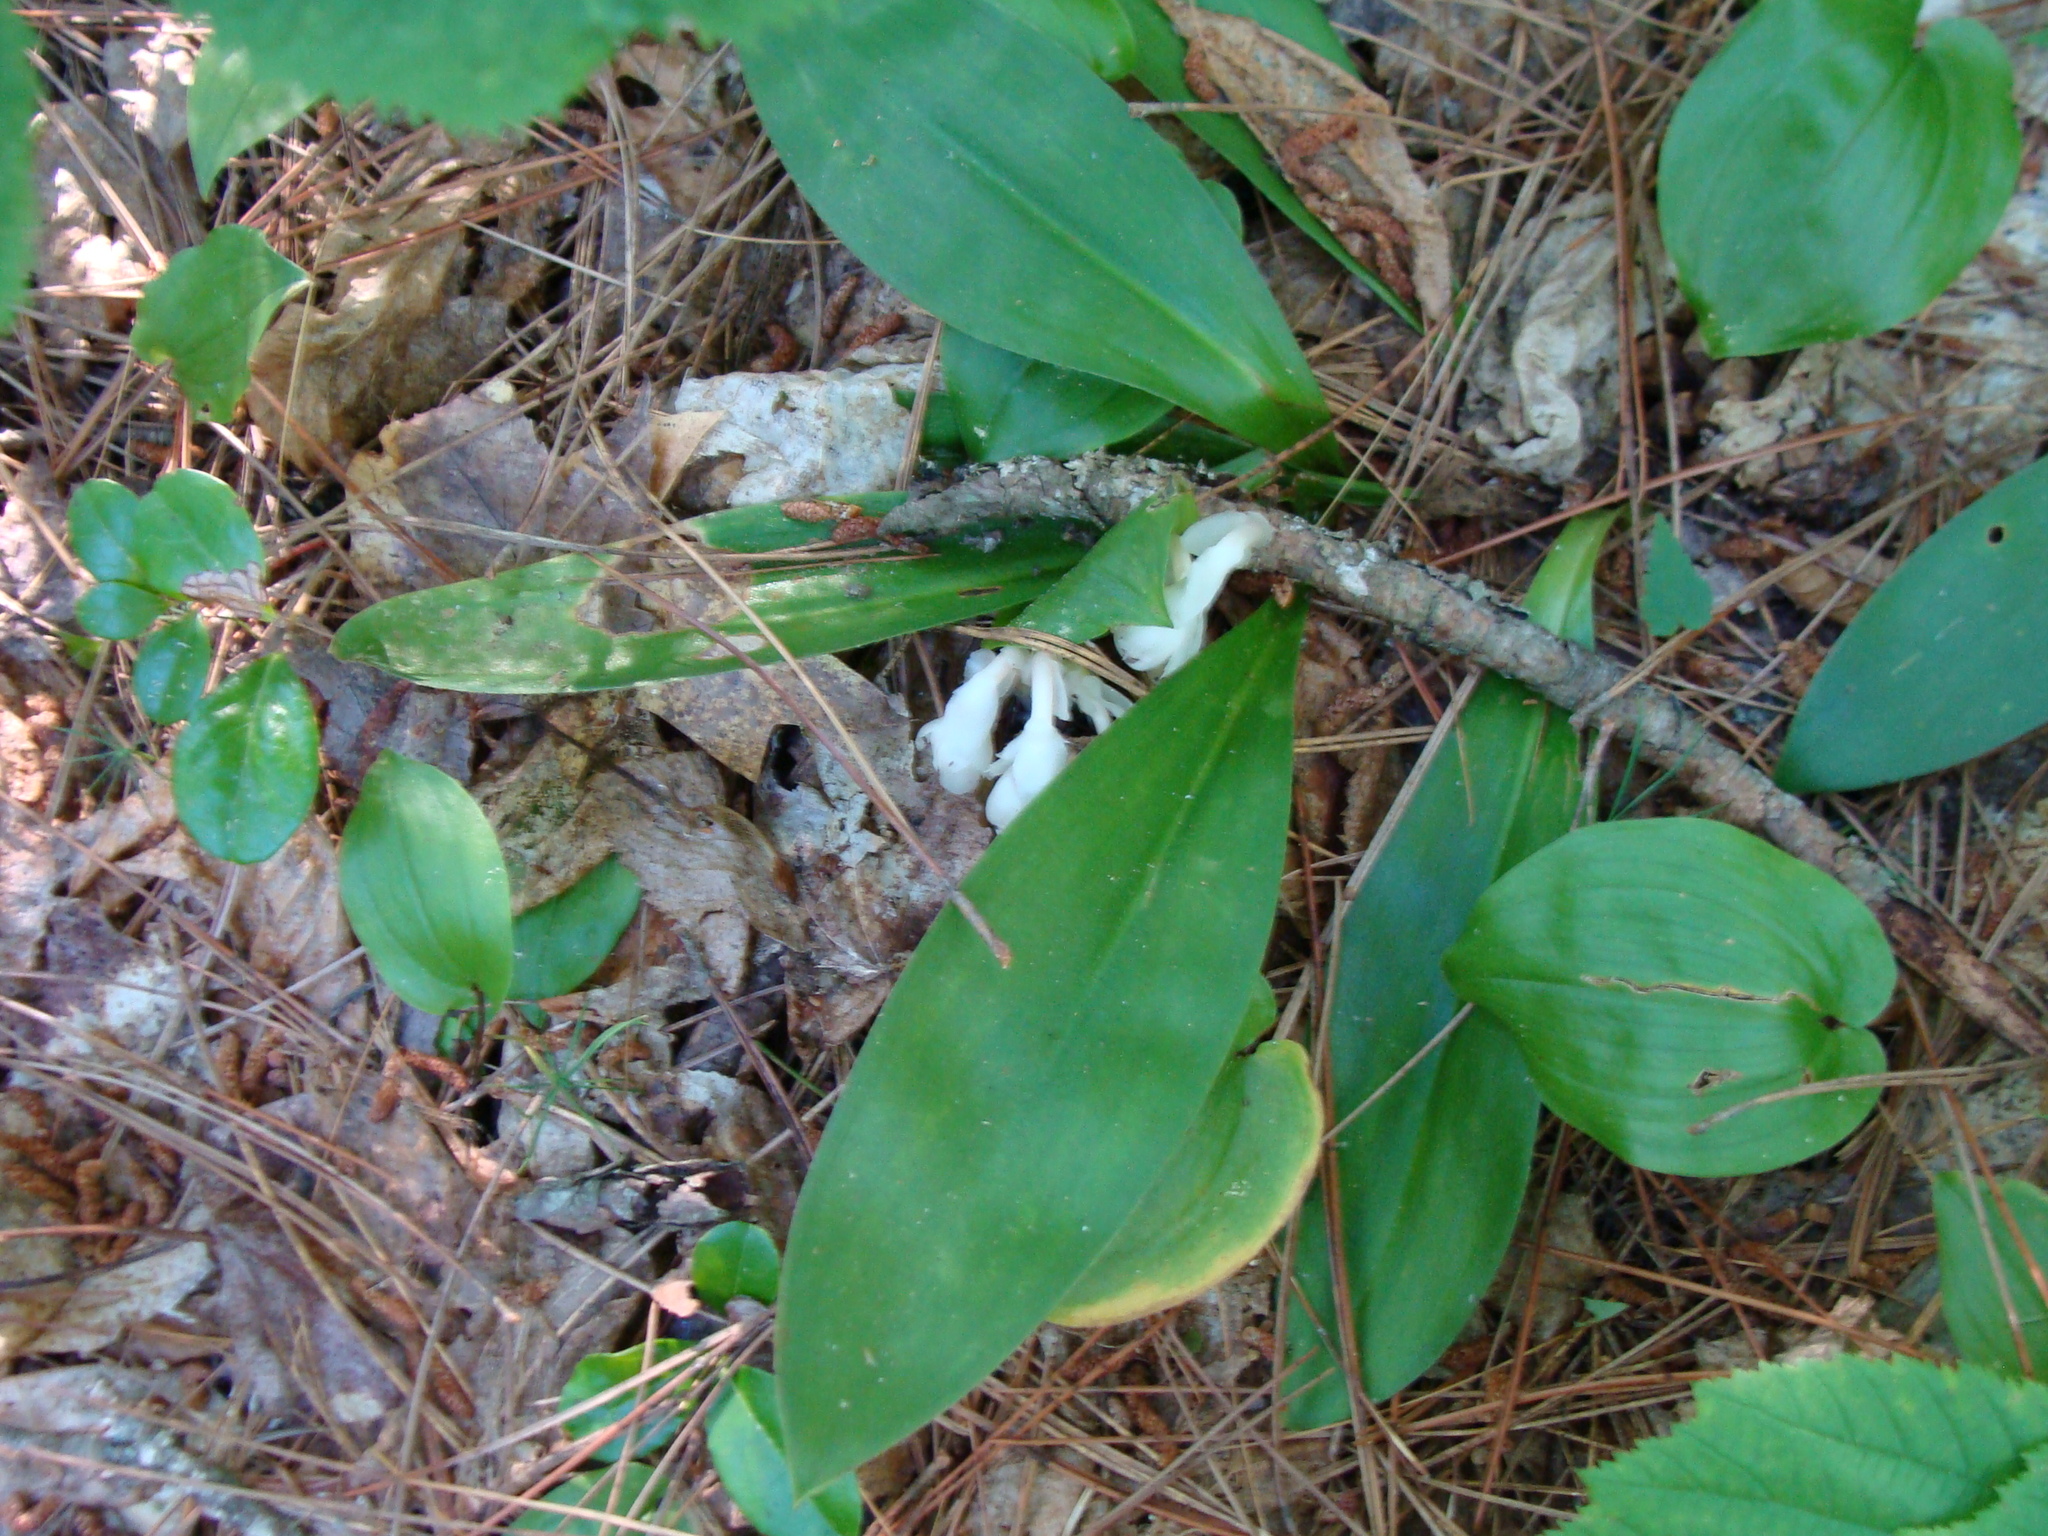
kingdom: Plantae
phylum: Tracheophyta
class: Magnoliopsida
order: Ericales
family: Ericaceae
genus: Monotropa
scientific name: Monotropa uniflora
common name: Convulsion root
